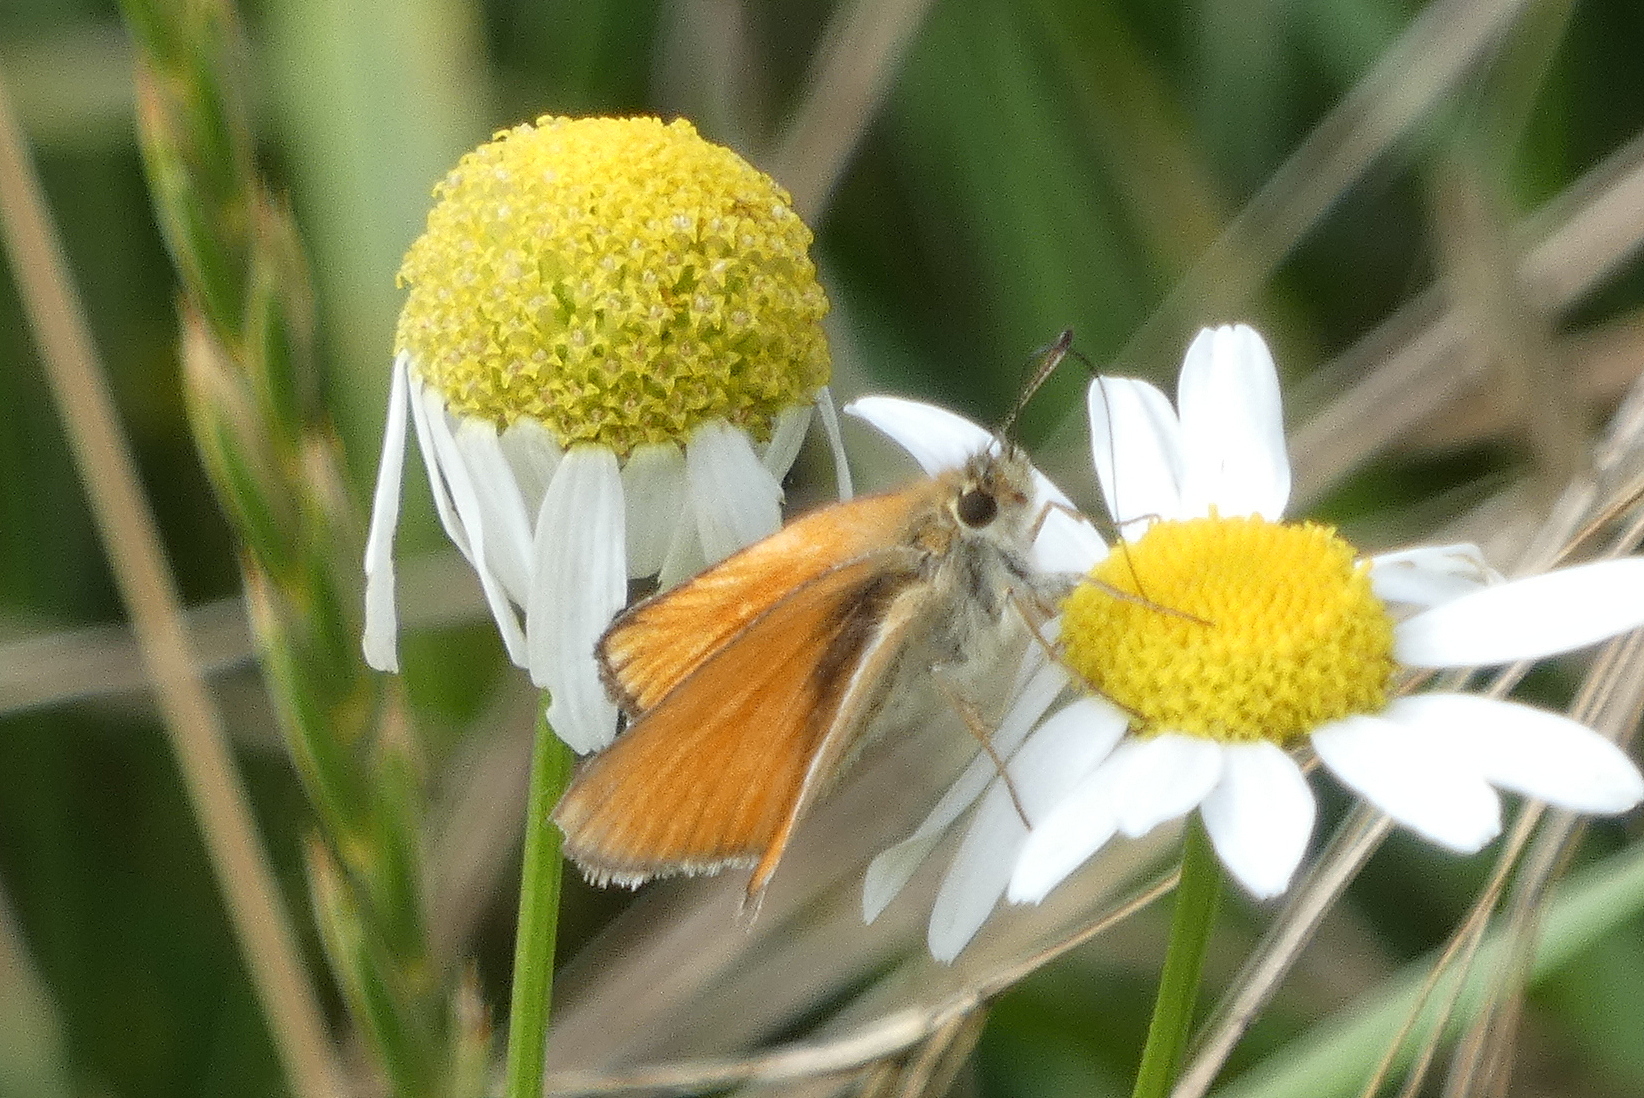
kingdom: Animalia
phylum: Arthropoda
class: Insecta
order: Lepidoptera
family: Hesperiidae
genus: Thymelicus
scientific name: Thymelicus lineola
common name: Essex skipper
